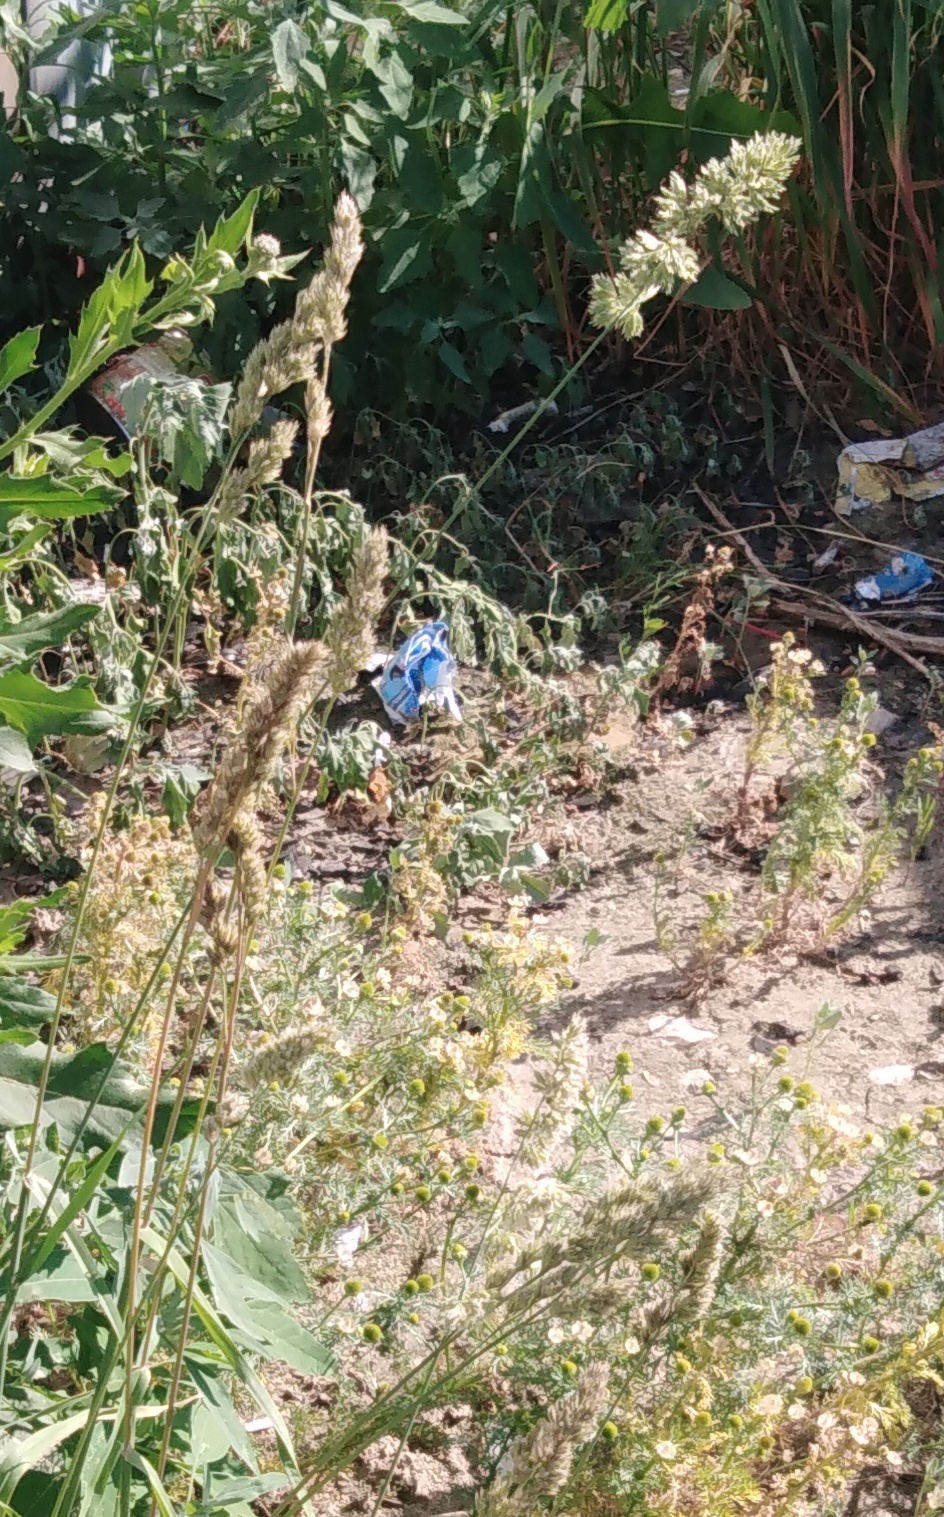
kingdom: Plantae
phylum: Tracheophyta
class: Liliopsida
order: Poales
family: Poaceae
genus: Dactylis
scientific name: Dactylis glomerata
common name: Orchardgrass
